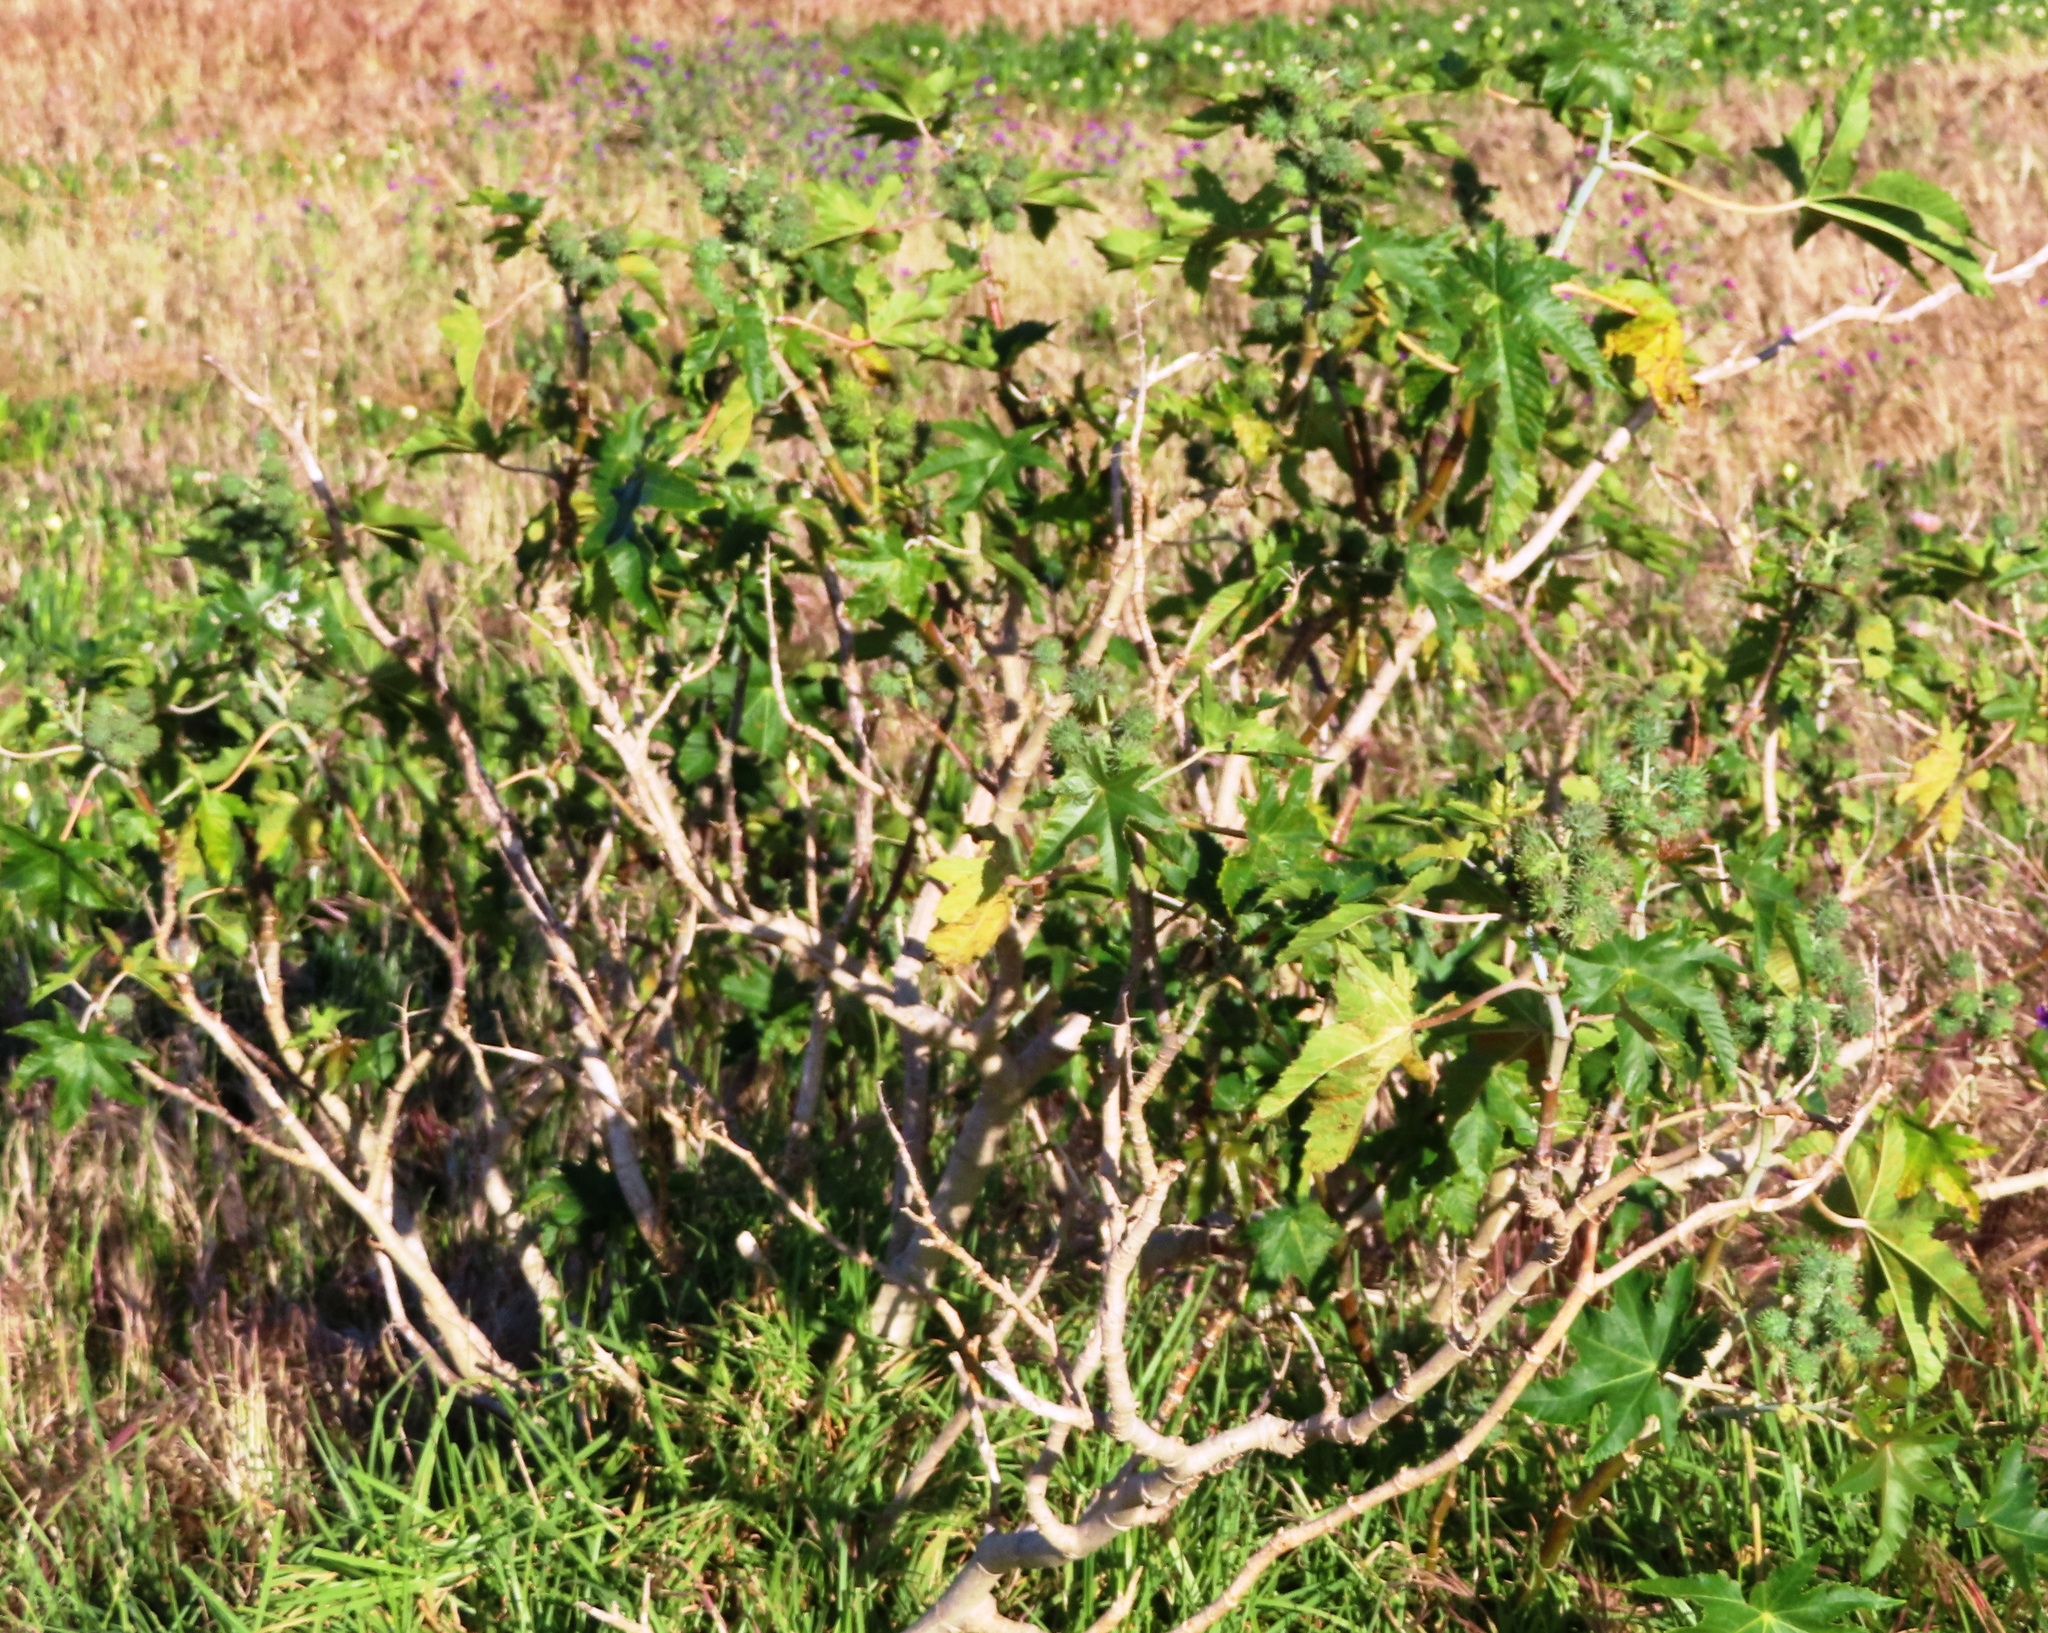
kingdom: Plantae
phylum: Tracheophyta
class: Magnoliopsida
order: Malpighiales
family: Euphorbiaceae
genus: Ricinus
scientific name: Ricinus communis
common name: Castor-oil-plant
